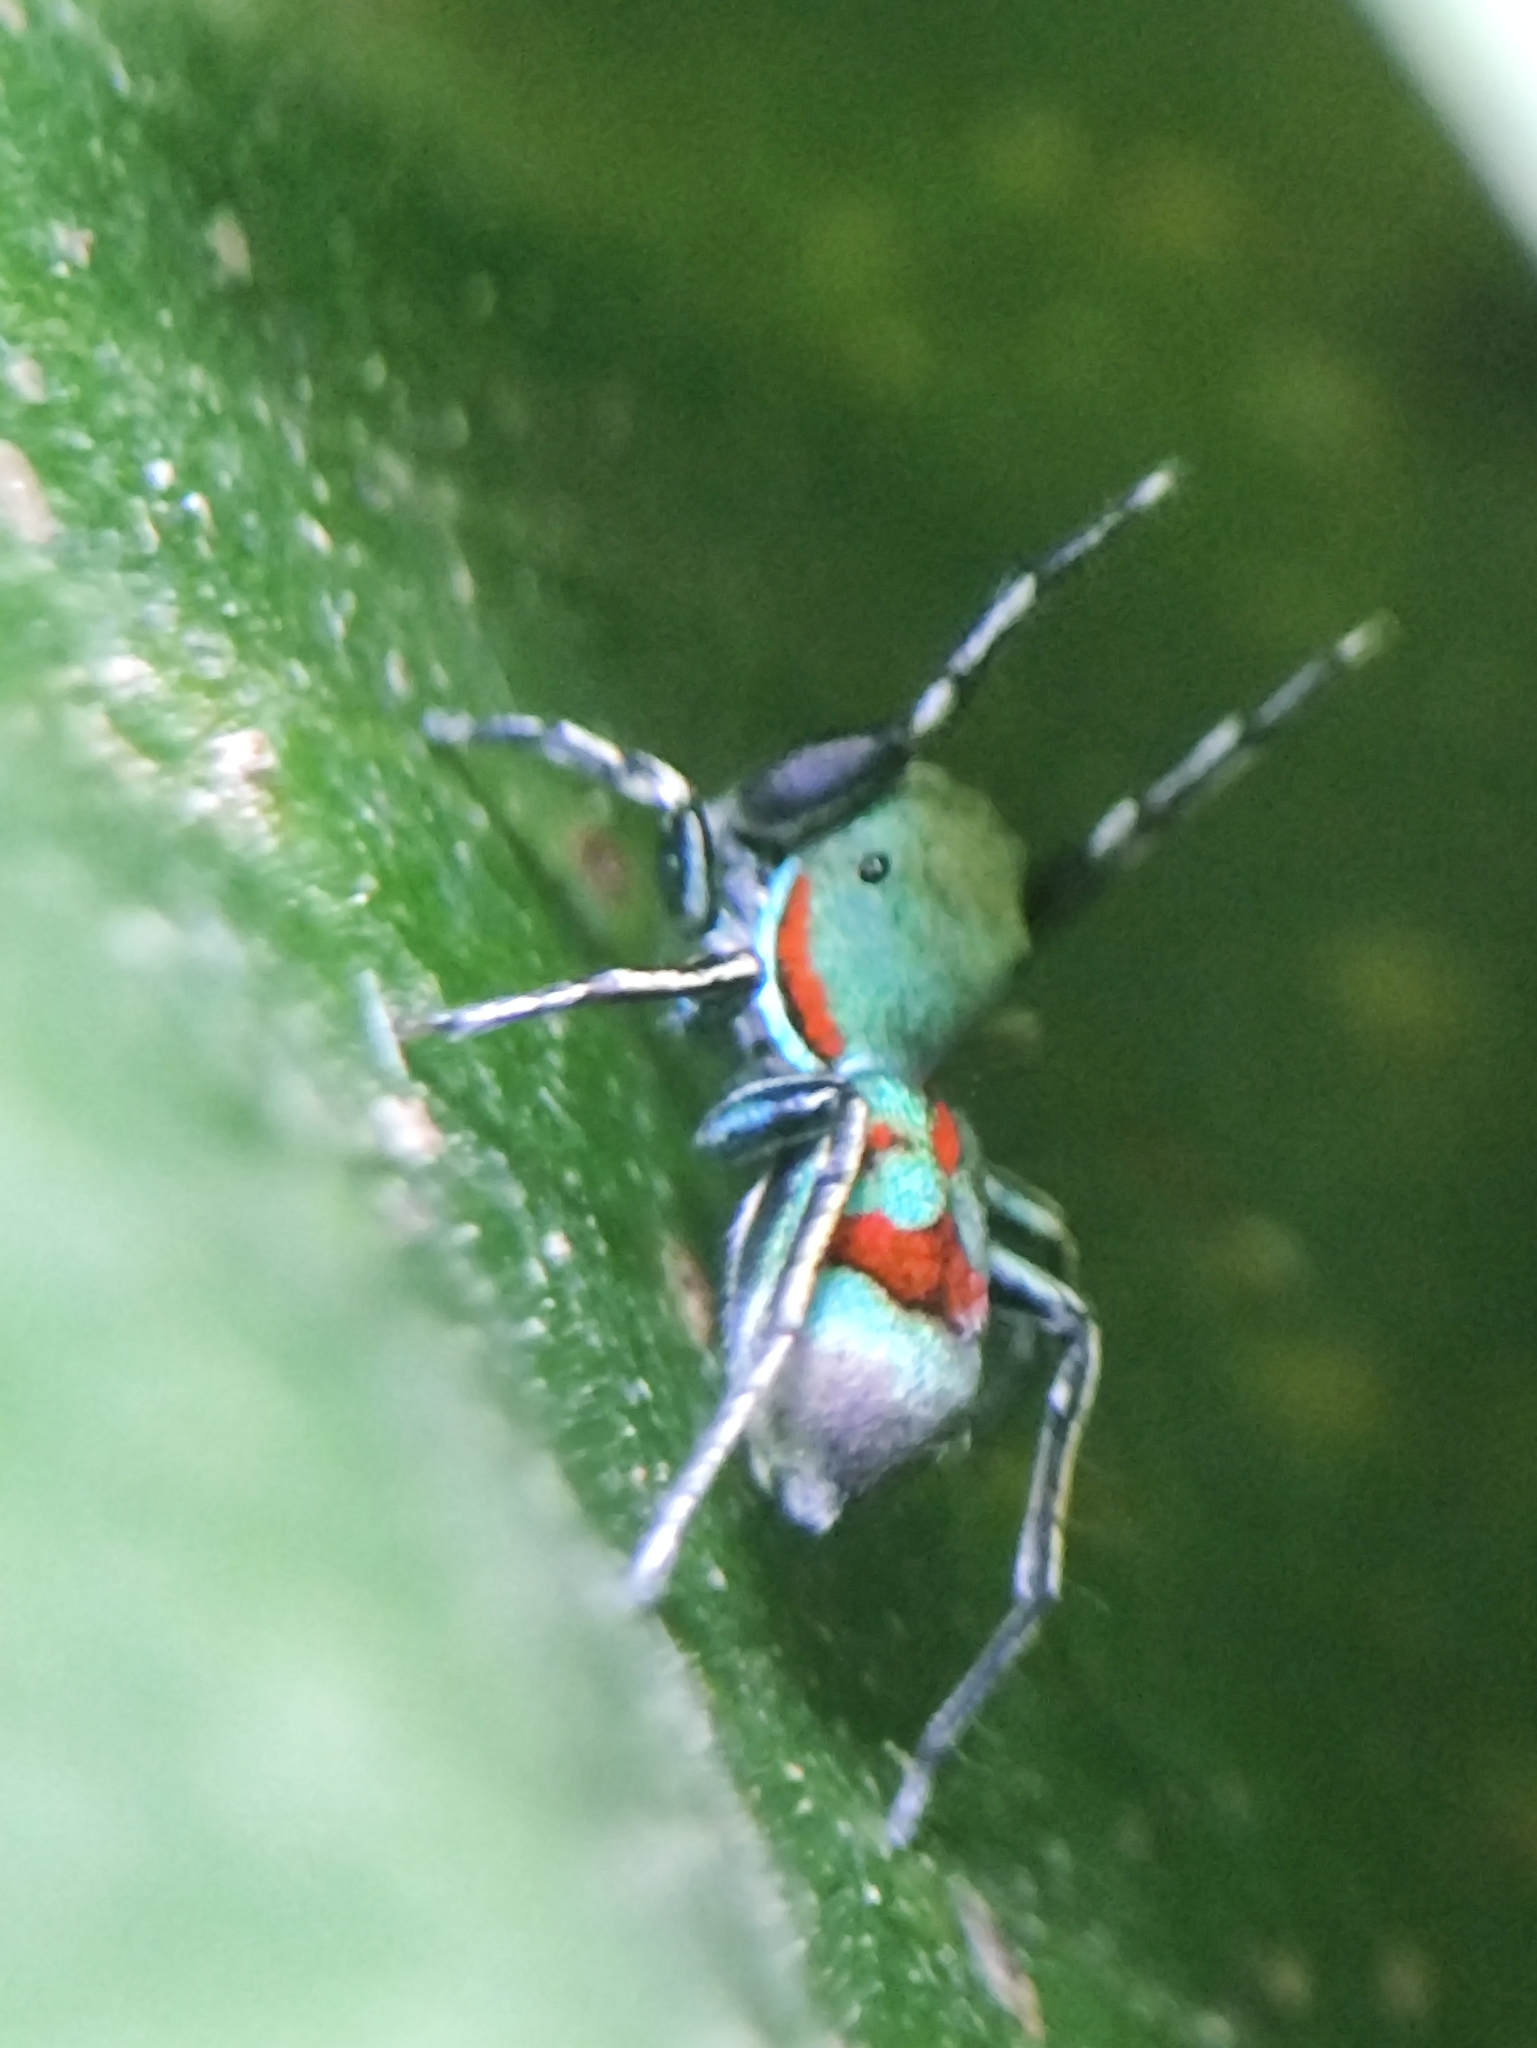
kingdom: Animalia
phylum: Arthropoda
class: Arachnida
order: Araneae
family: Salticidae
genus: Siler
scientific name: Siler semiglaucus
